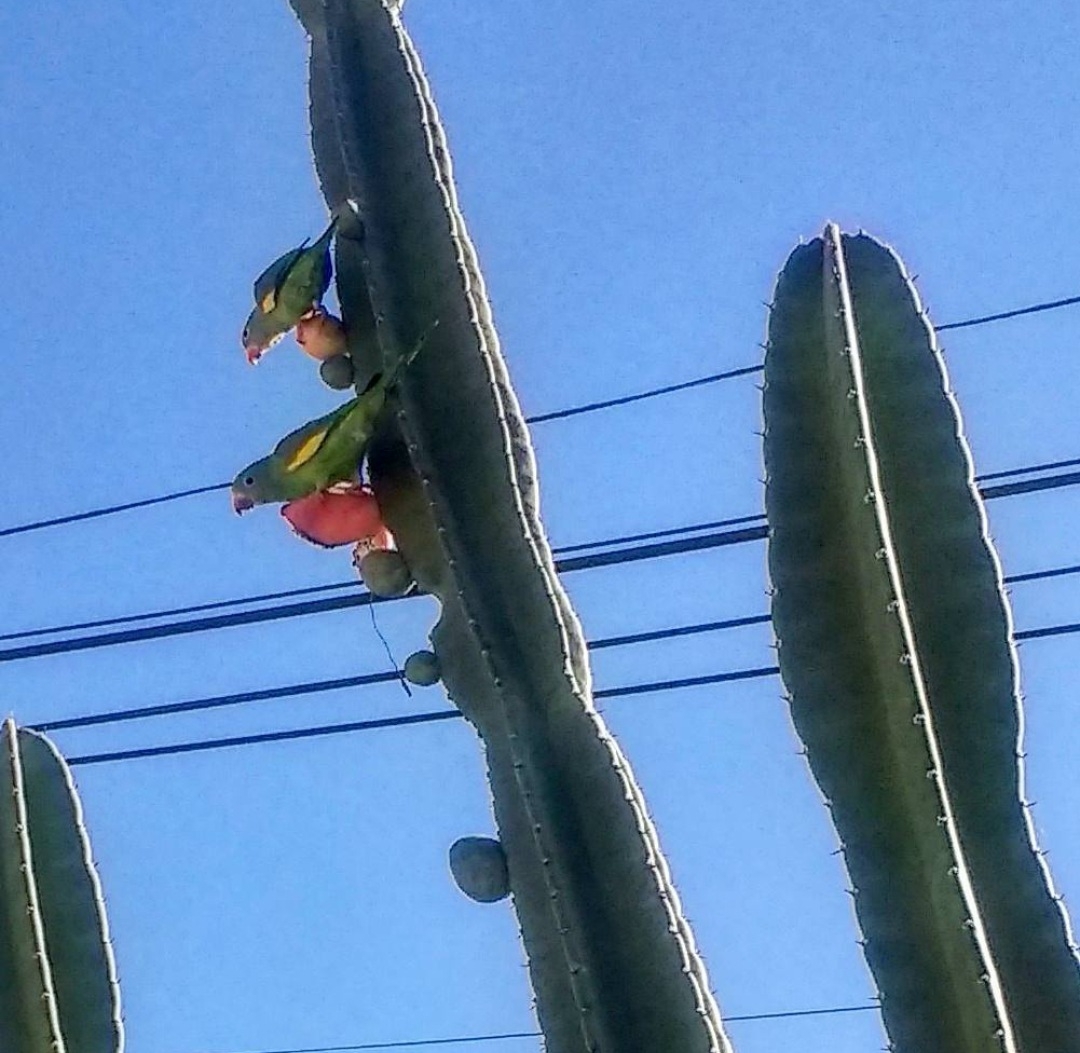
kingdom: Animalia
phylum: Chordata
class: Aves
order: Psittaciformes
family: Psittacidae
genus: Brotogeris
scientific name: Brotogeris chiriri
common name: Yellow-chevroned parakeet
